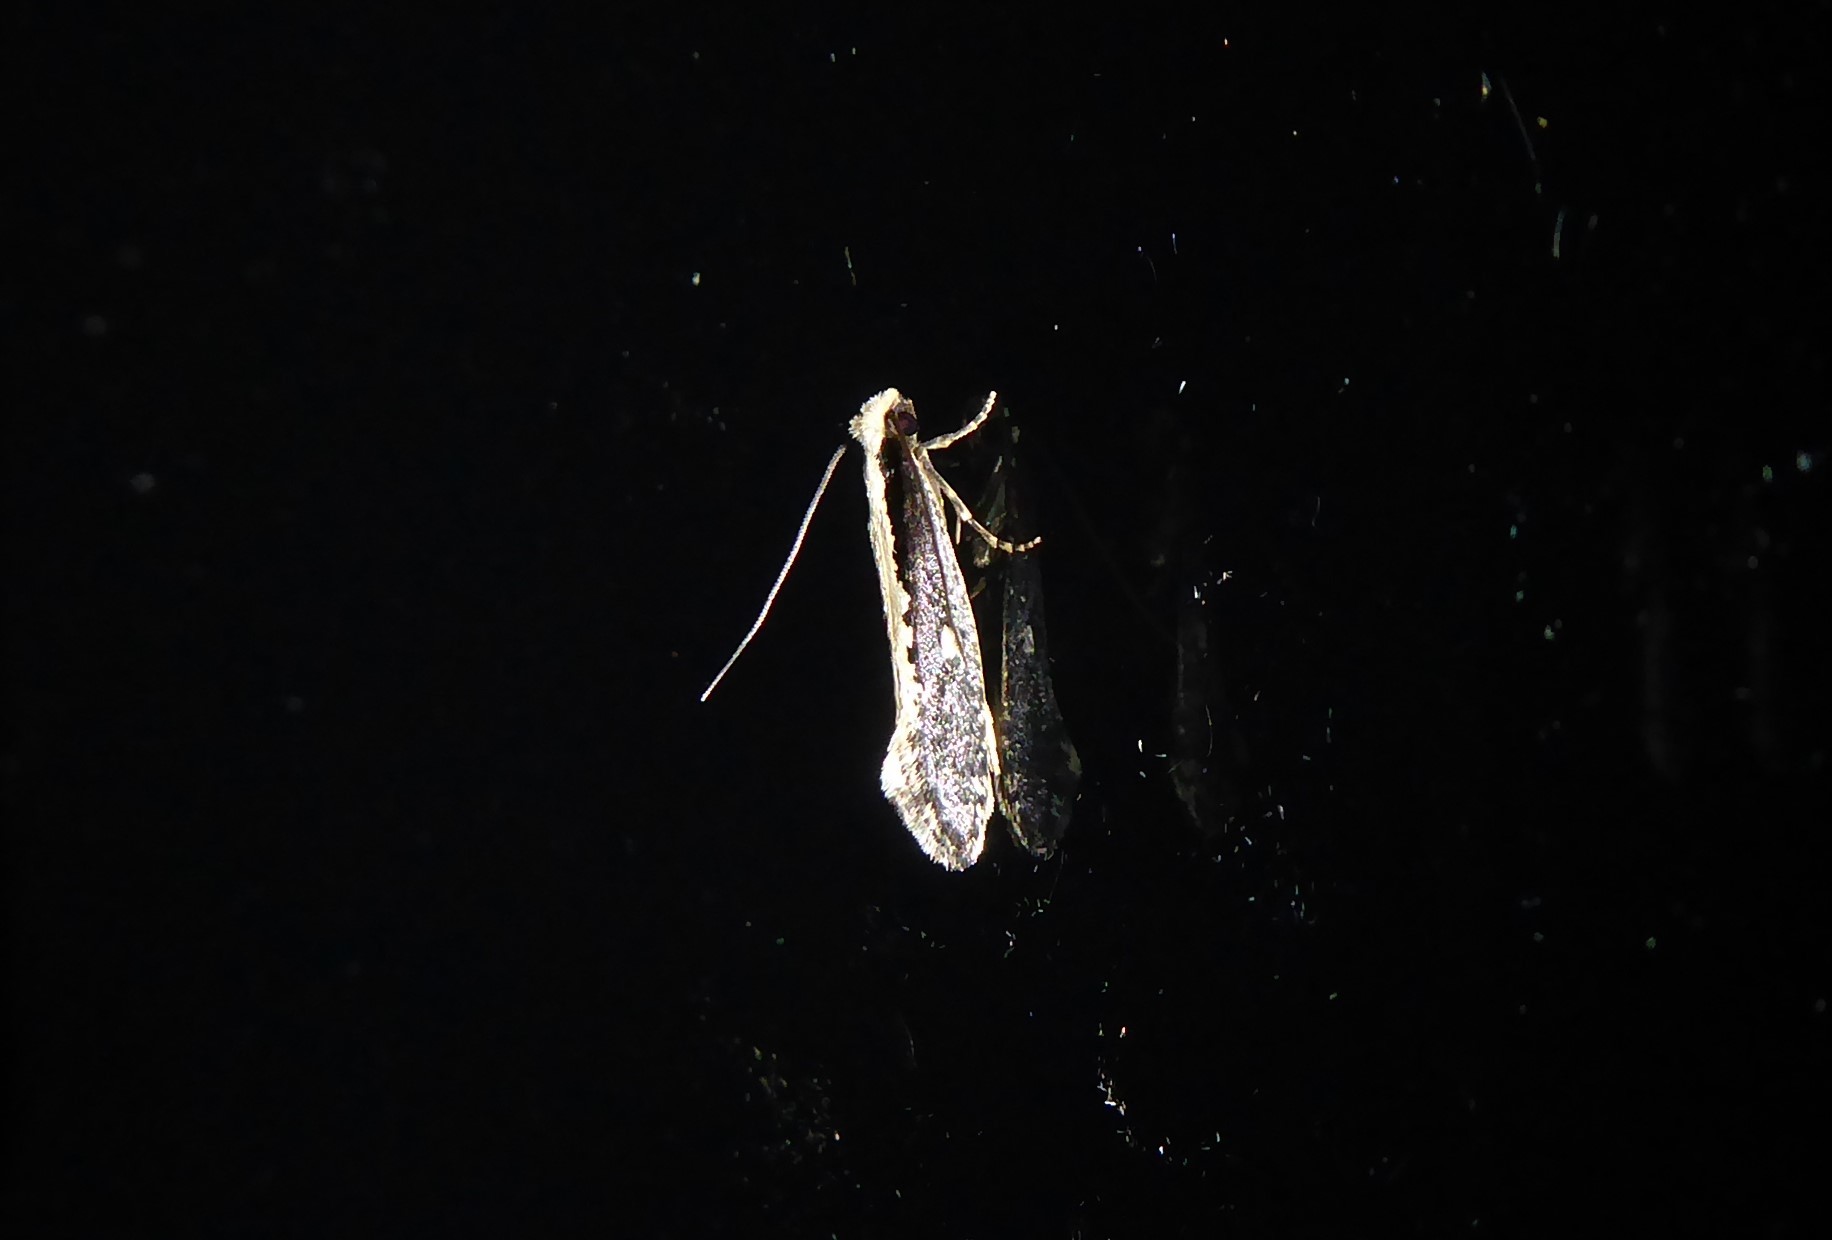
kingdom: Animalia
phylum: Arthropoda
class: Insecta
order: Lepidoptera
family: Tineidae
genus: Monopis
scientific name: Monopis ethelella
